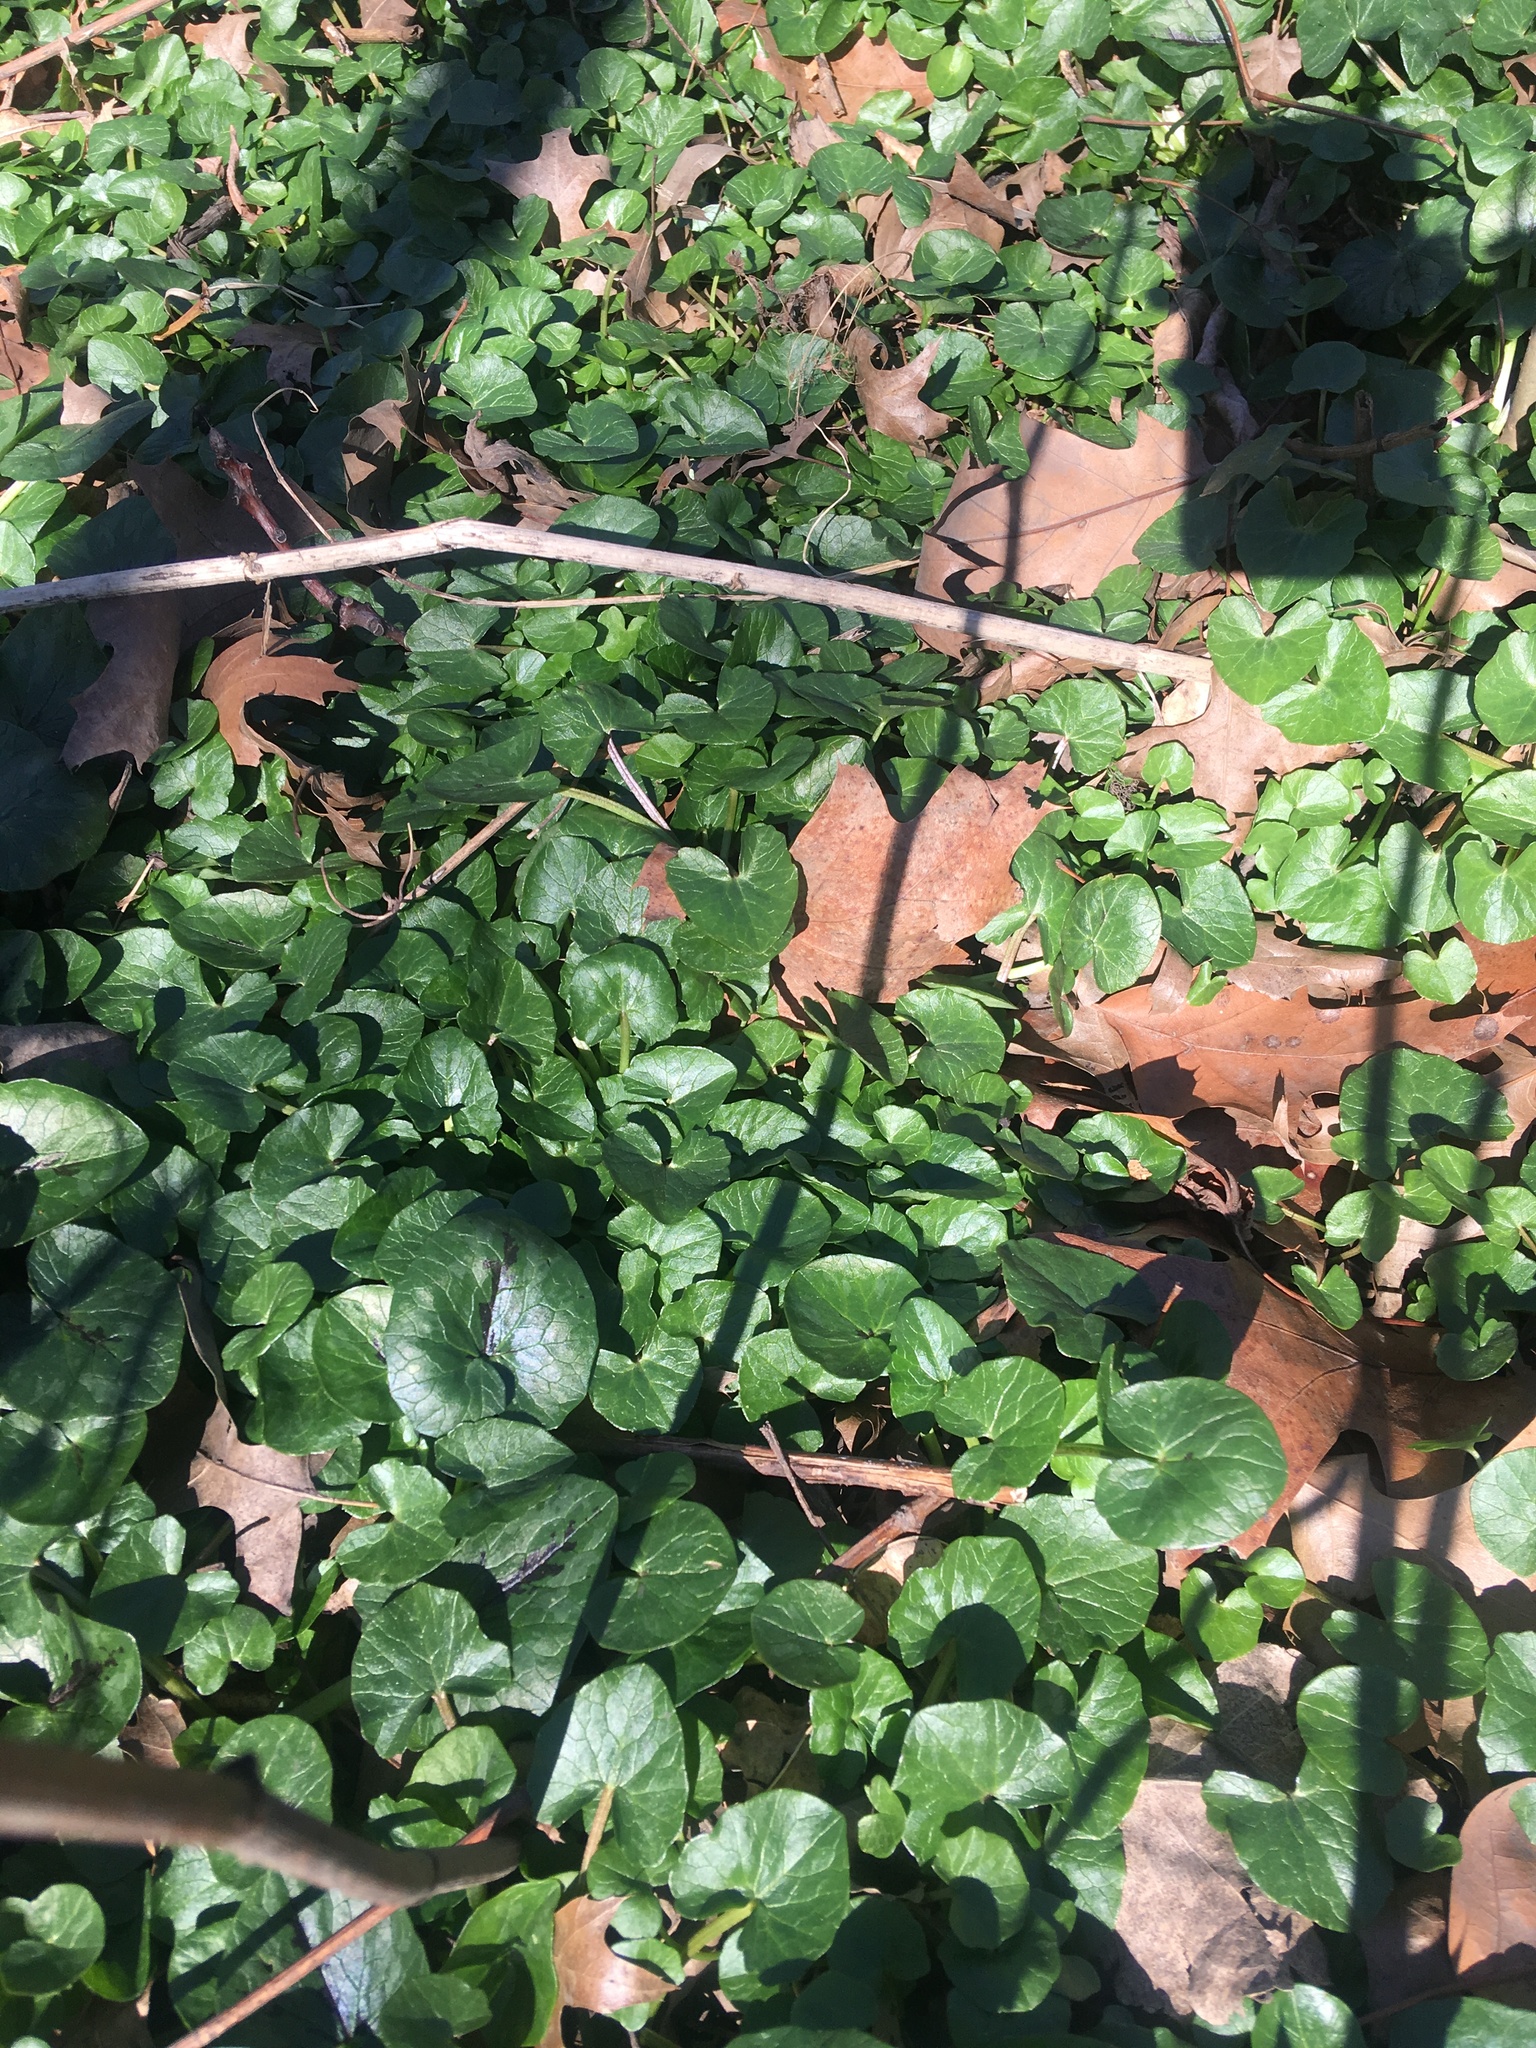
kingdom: Plantae
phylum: Tracheophyta
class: Magnoliopsida
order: Ranunculales
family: Ranunculaceae
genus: Ficaria
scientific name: Ficaria verna
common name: Lesser celandine
